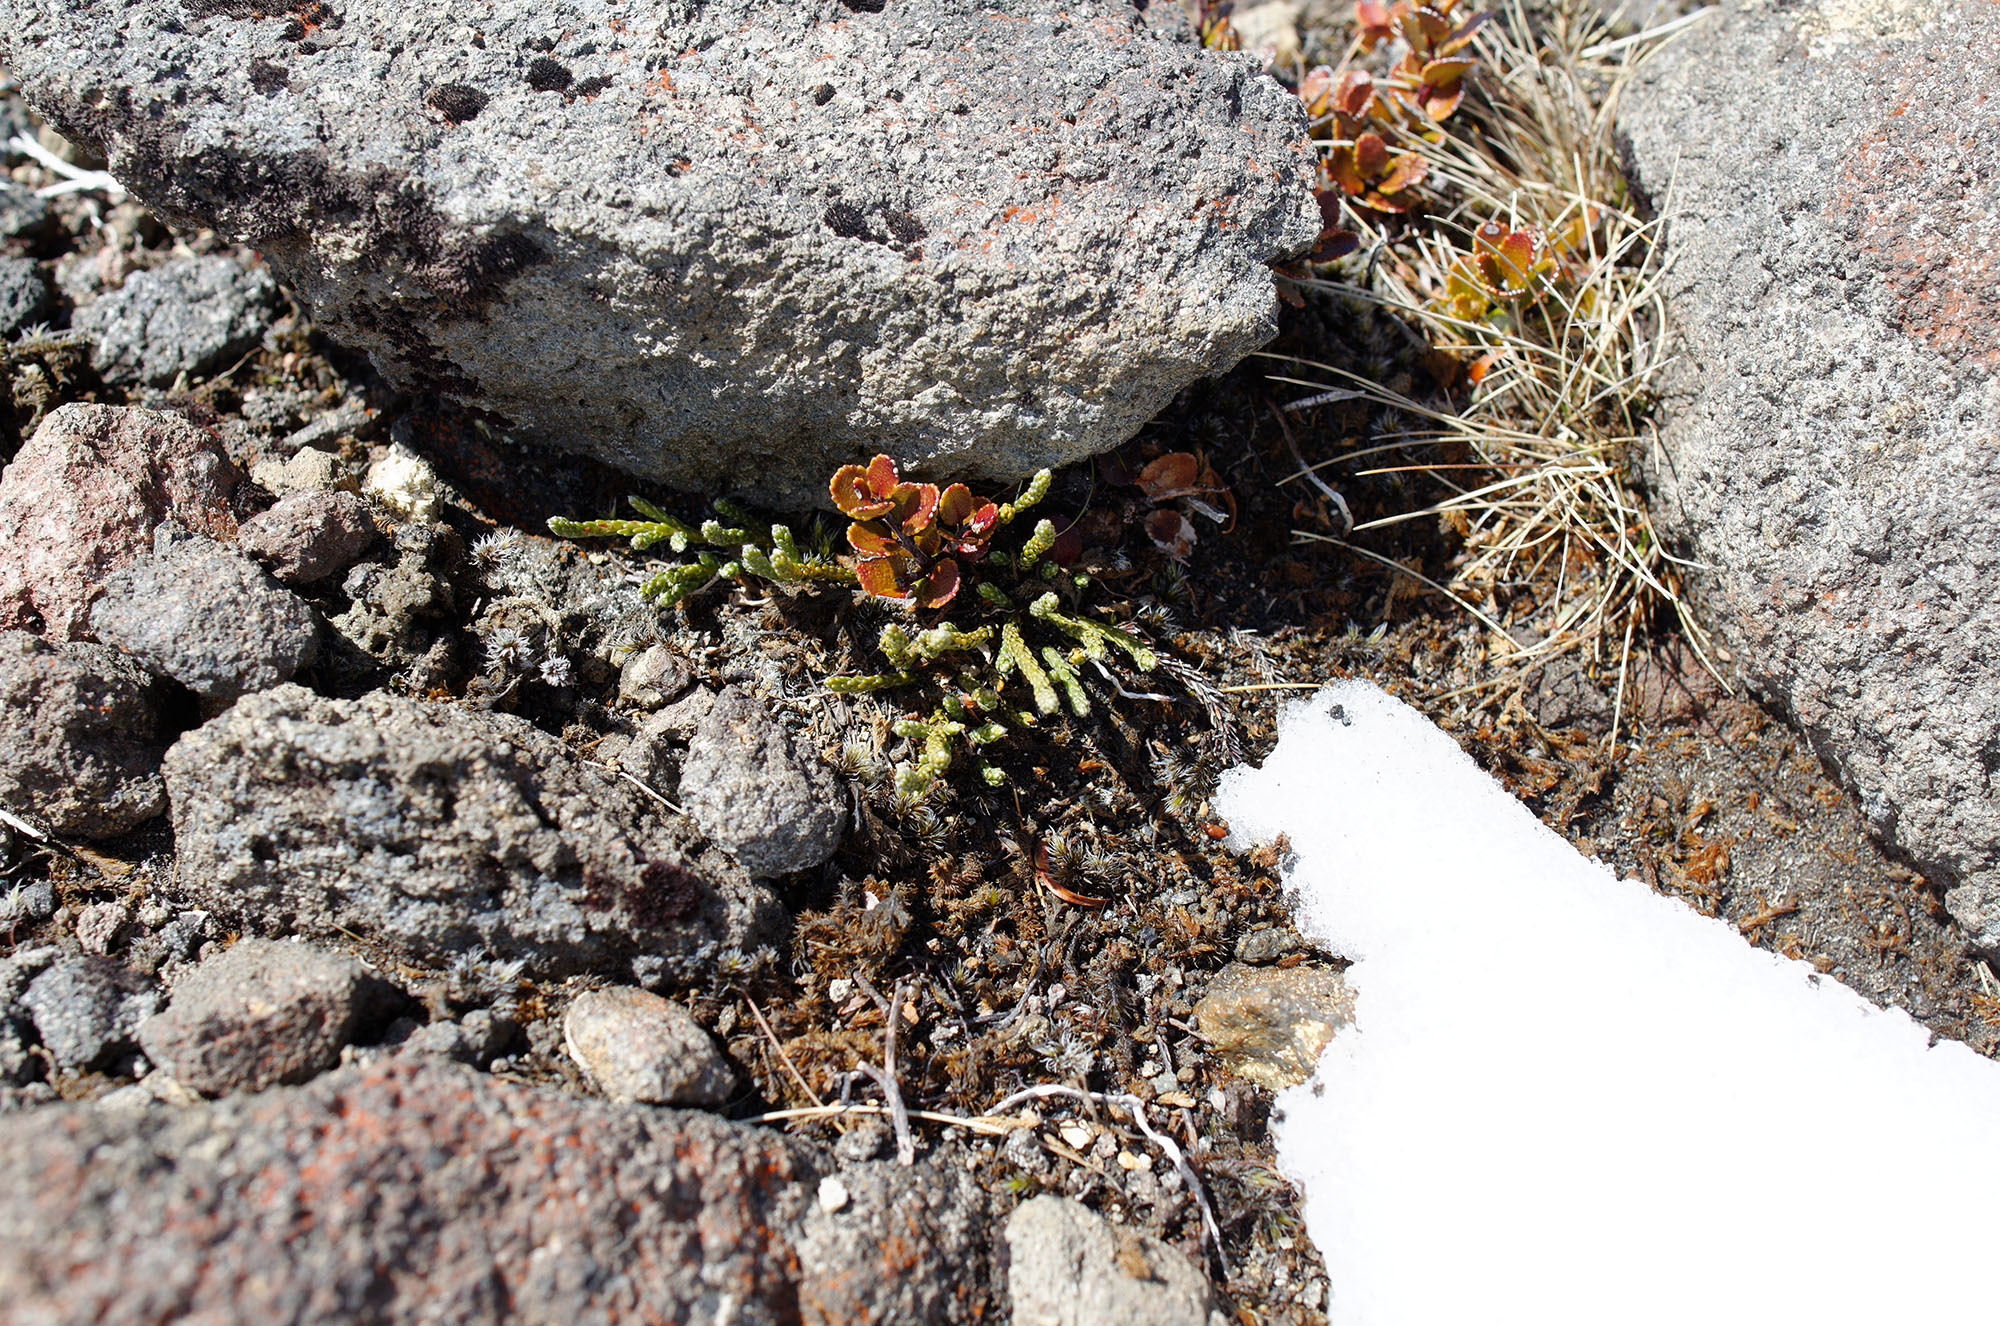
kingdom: Plantae
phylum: Tracheophyta
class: Magnoliopsida
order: Malvales
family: Thymelaeaceae
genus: Kelleria
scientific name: Kelleria dieffenbachii
